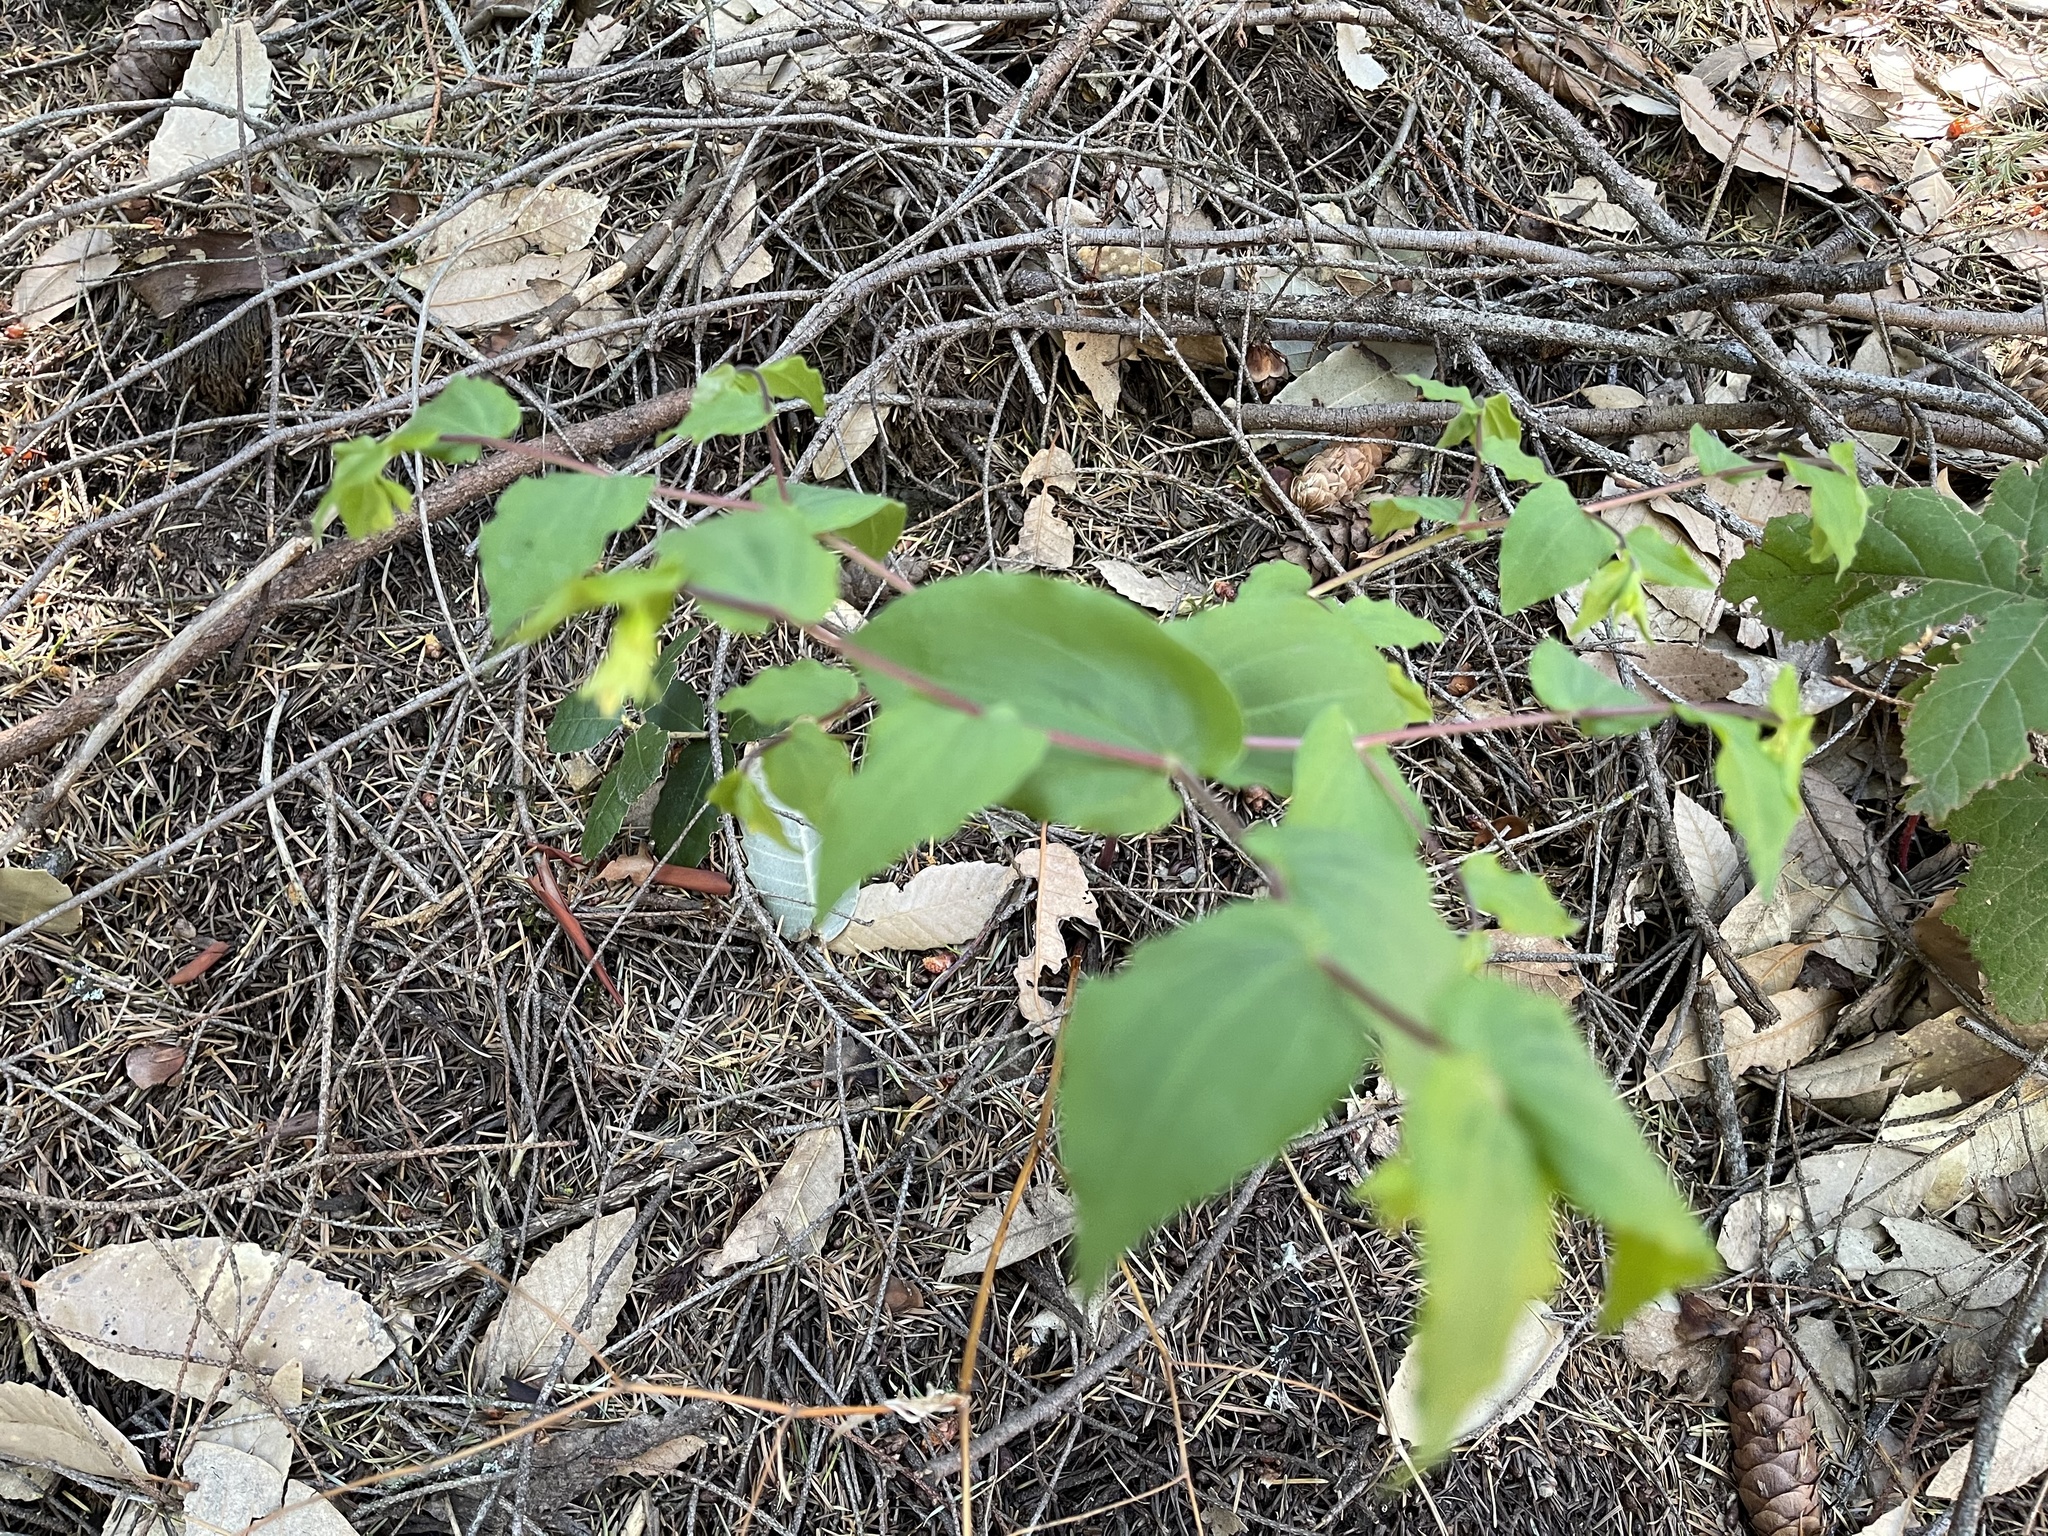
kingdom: Plantae
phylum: Tracheophyta
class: Liliopsida
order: Liliales
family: Liliaceae
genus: Prosartes
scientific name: Prosartes hookeri
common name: Fairy-bells
